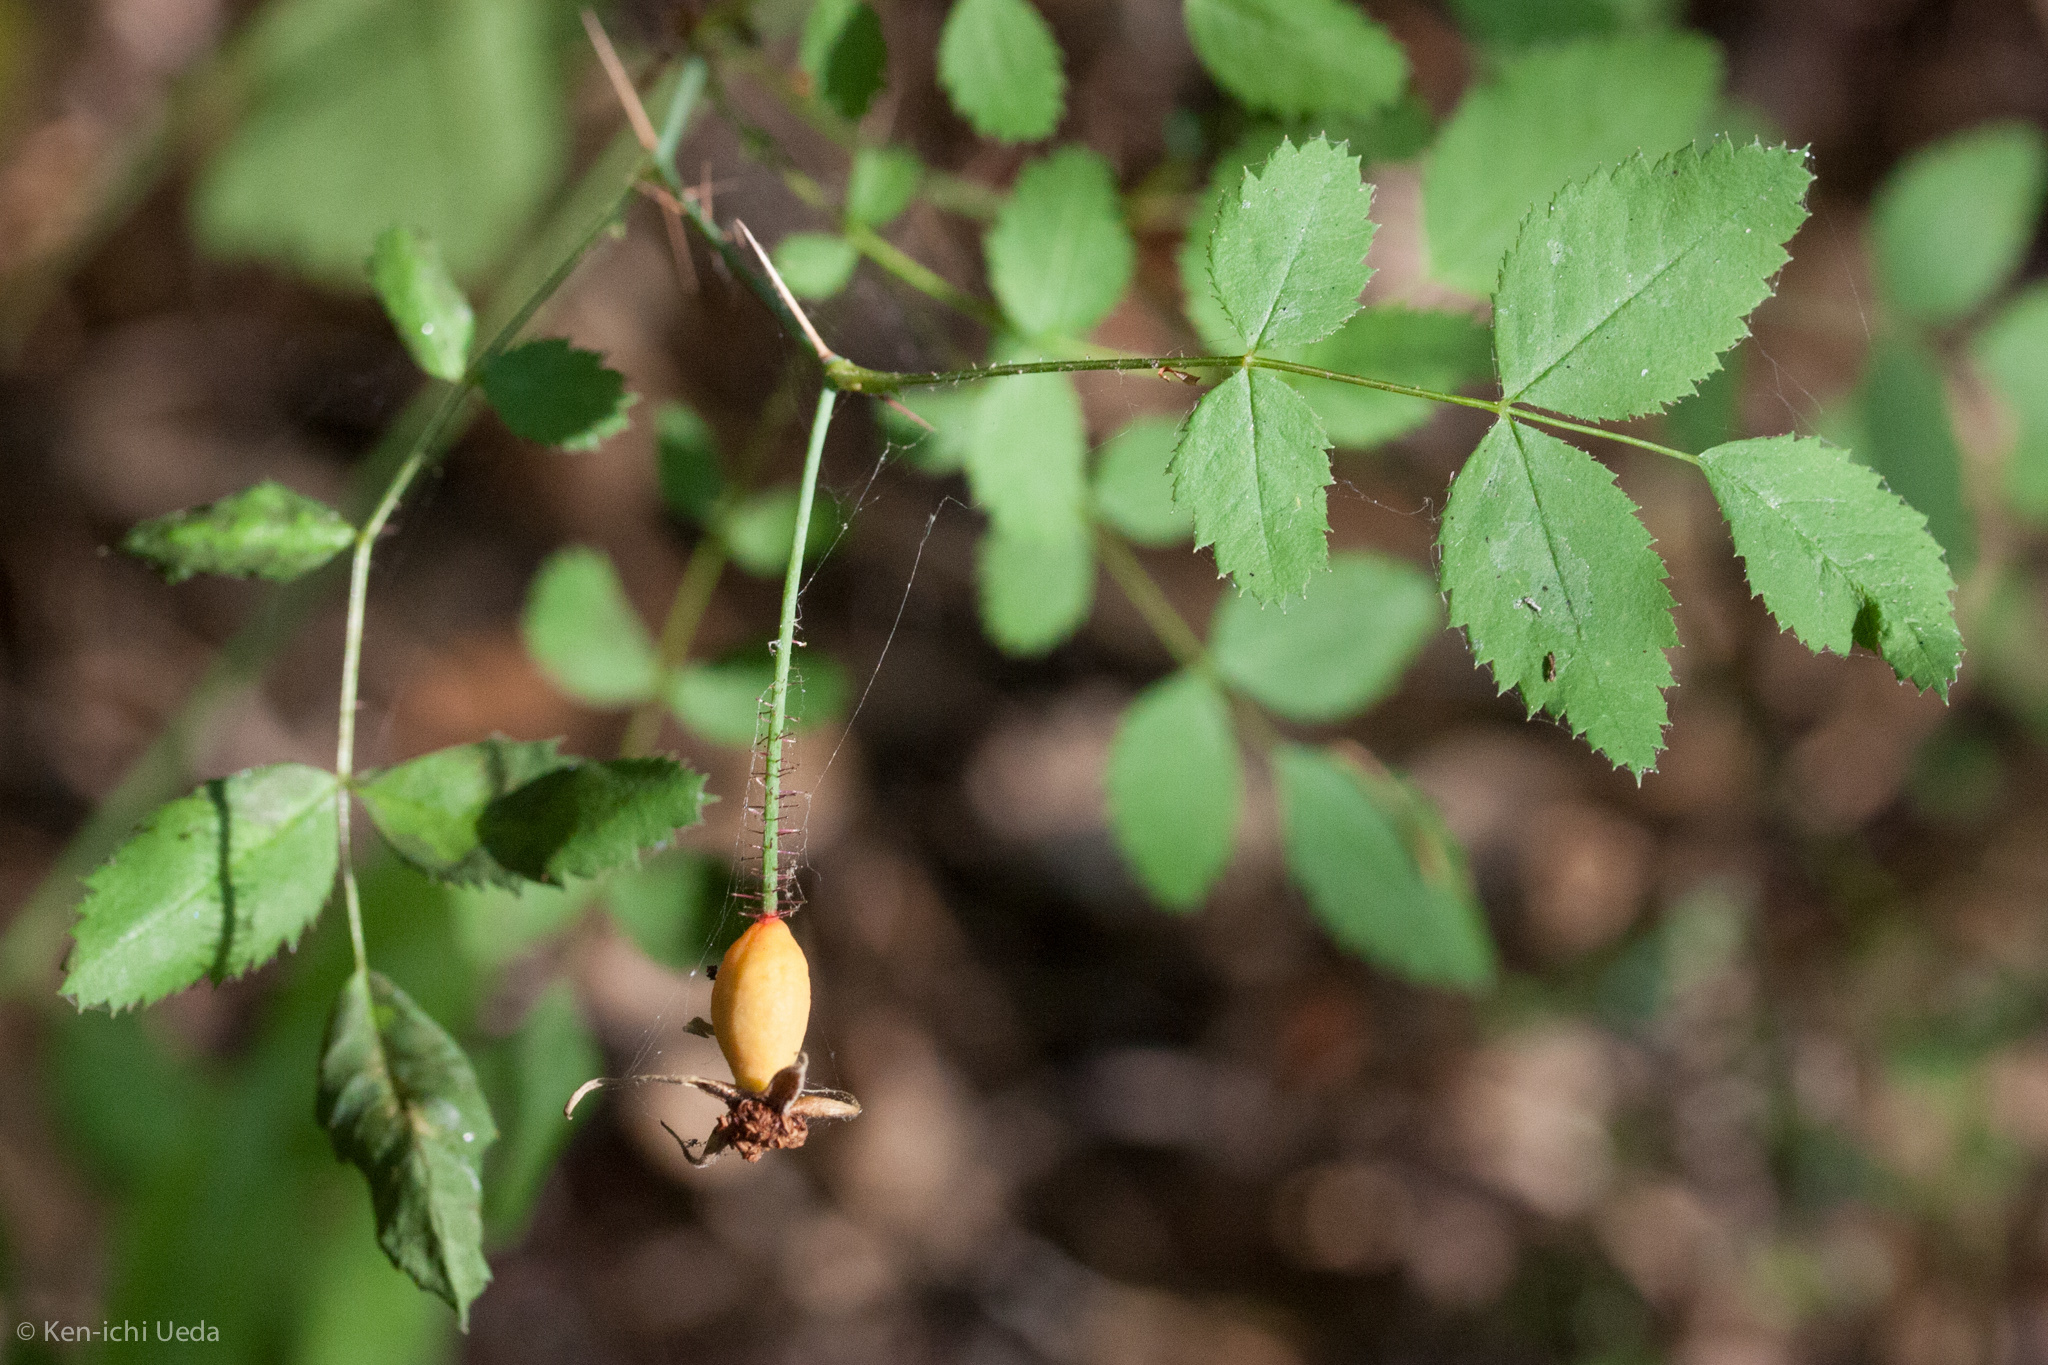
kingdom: Plantae
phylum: Tracheophyta
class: Magnoliopsida
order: Rosales
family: Rosaceae
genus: Rosa
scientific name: Rosa gymnocarpa
